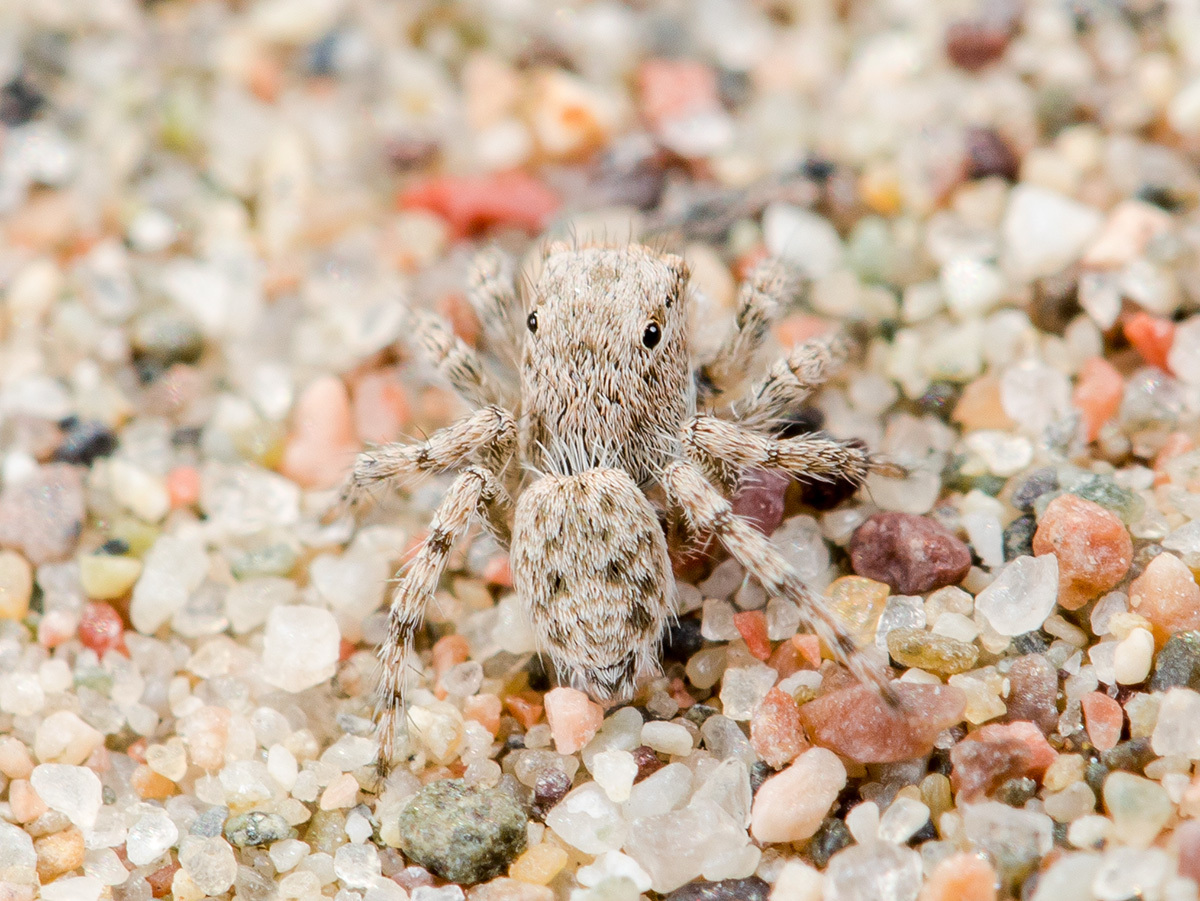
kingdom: Animalia
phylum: Arthropoda
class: Arachnida
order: Araneae
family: Salticidae
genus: Aelurillus
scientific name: Aelurillus andreevae
